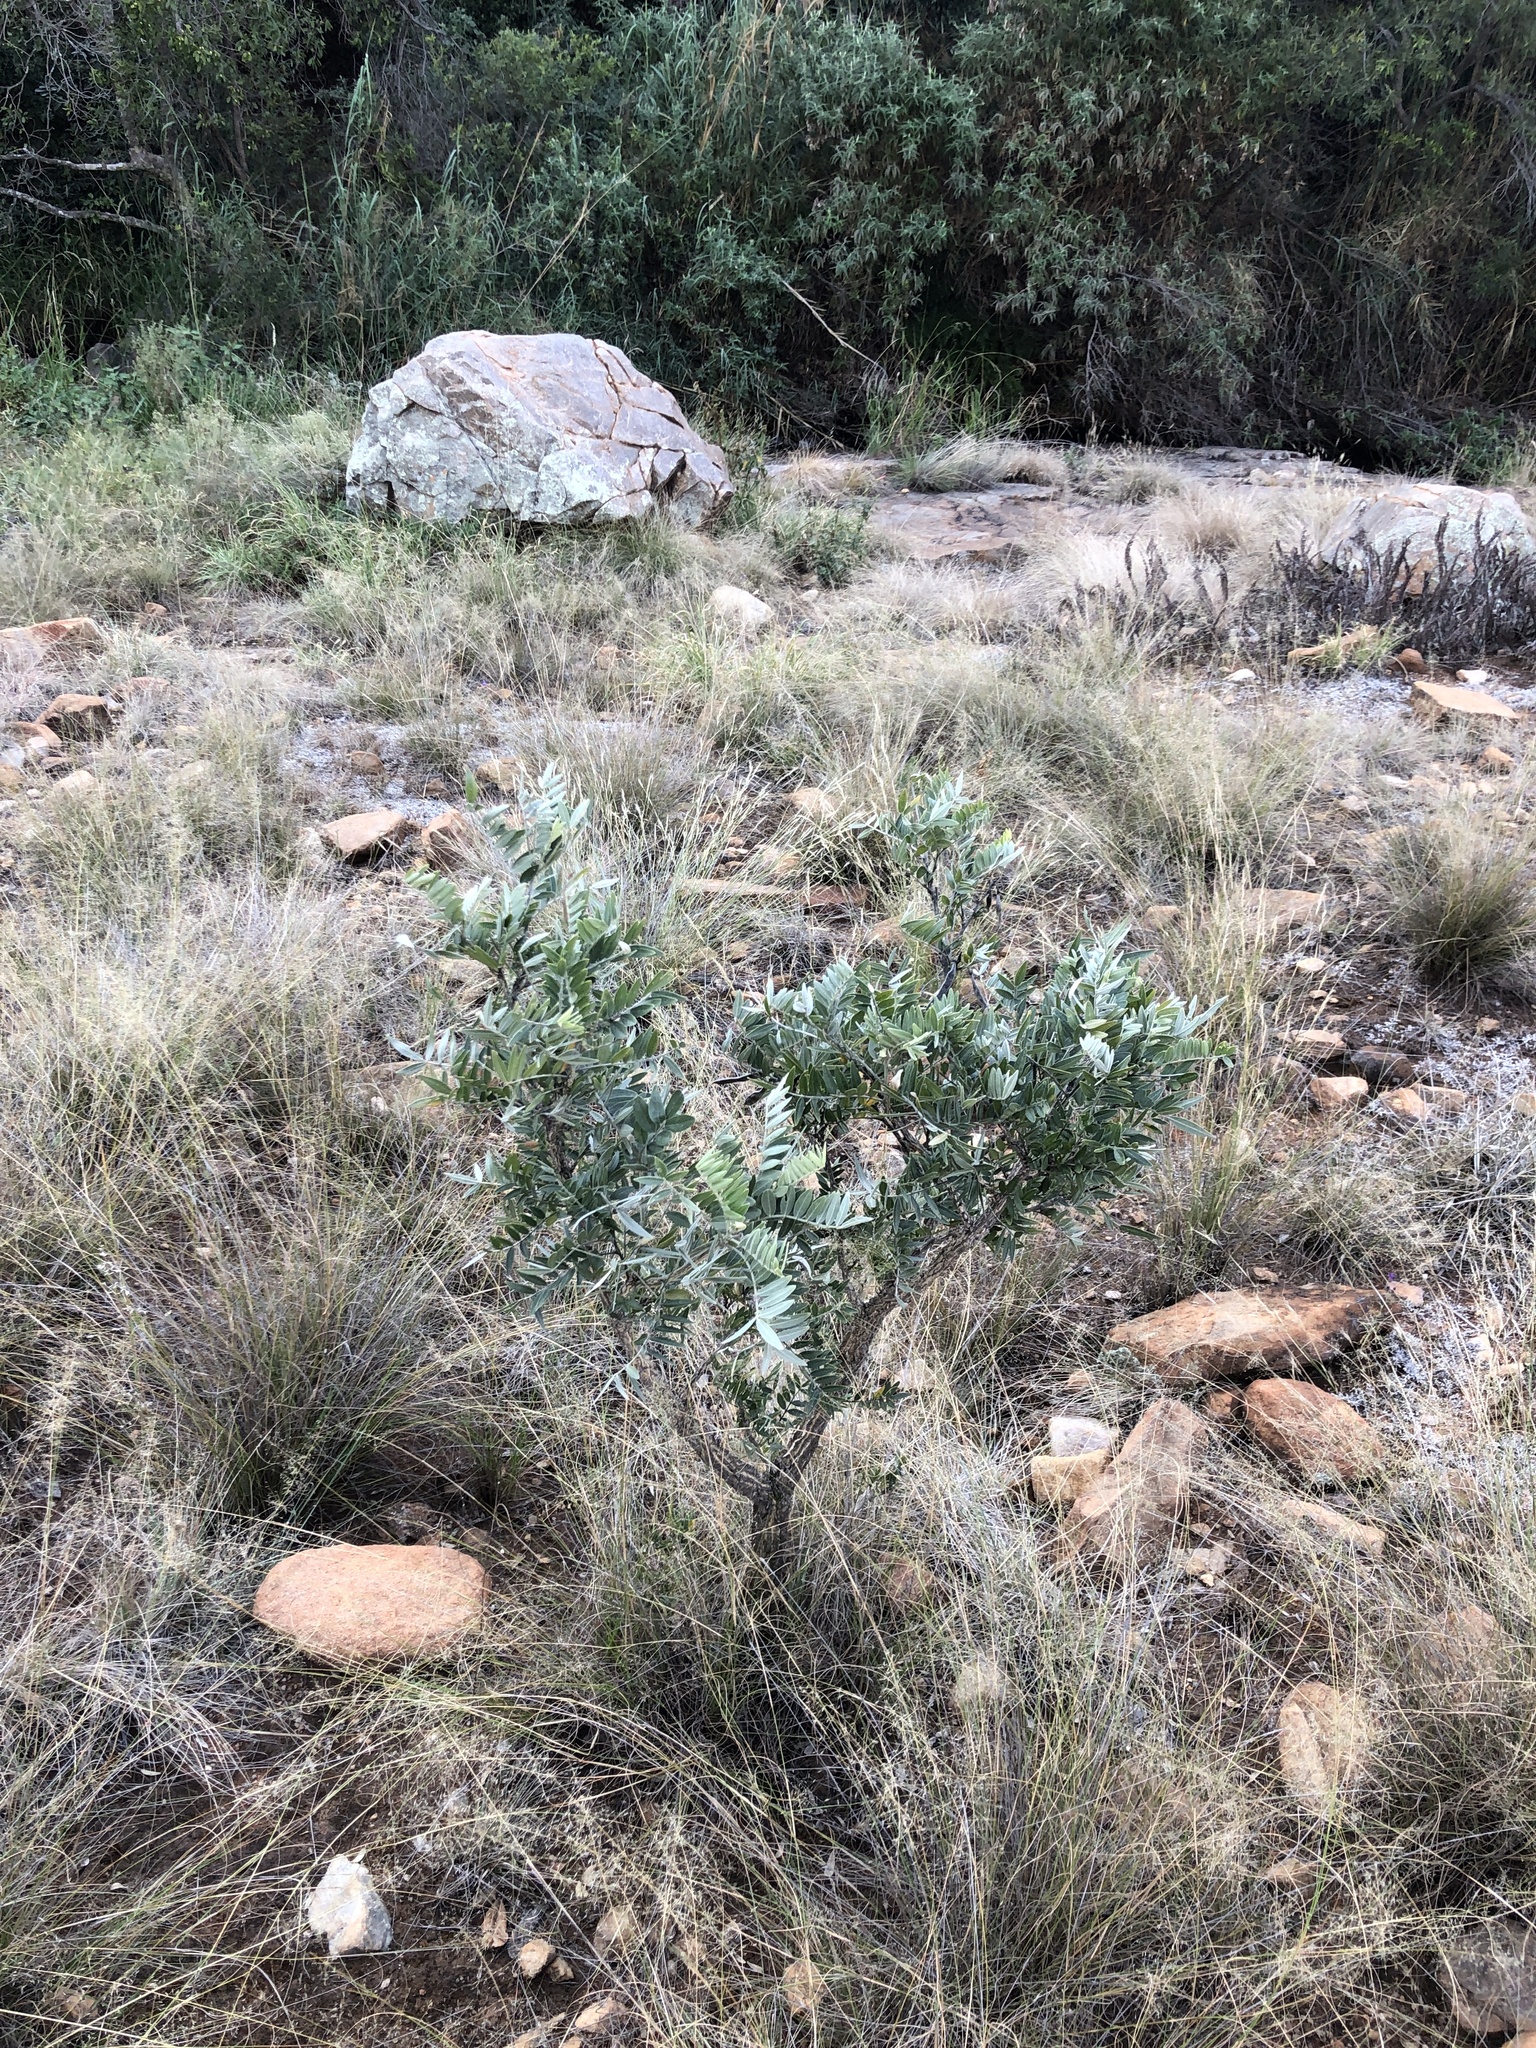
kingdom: Plantae
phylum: Tracheophyta
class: Magnoliopsida
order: Fabales
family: Fabaceae
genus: Mundulea
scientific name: Mundulea sericea
